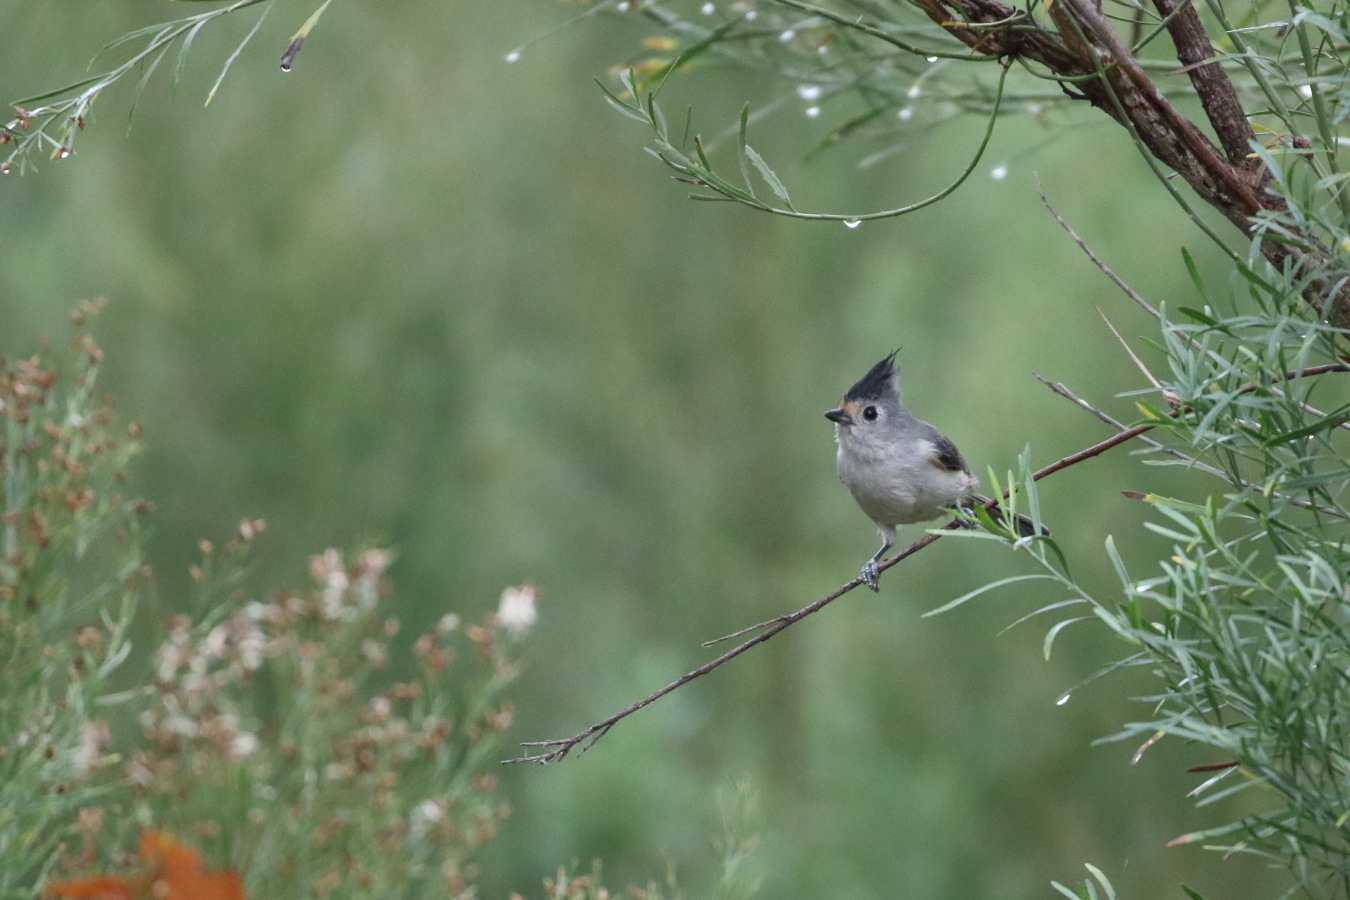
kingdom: Animalia
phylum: Chordata
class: Aves
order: Passeriformes
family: Paridae
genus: Baeolophus
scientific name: Baeolophus atricristatus
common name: Black-crested titmouse
